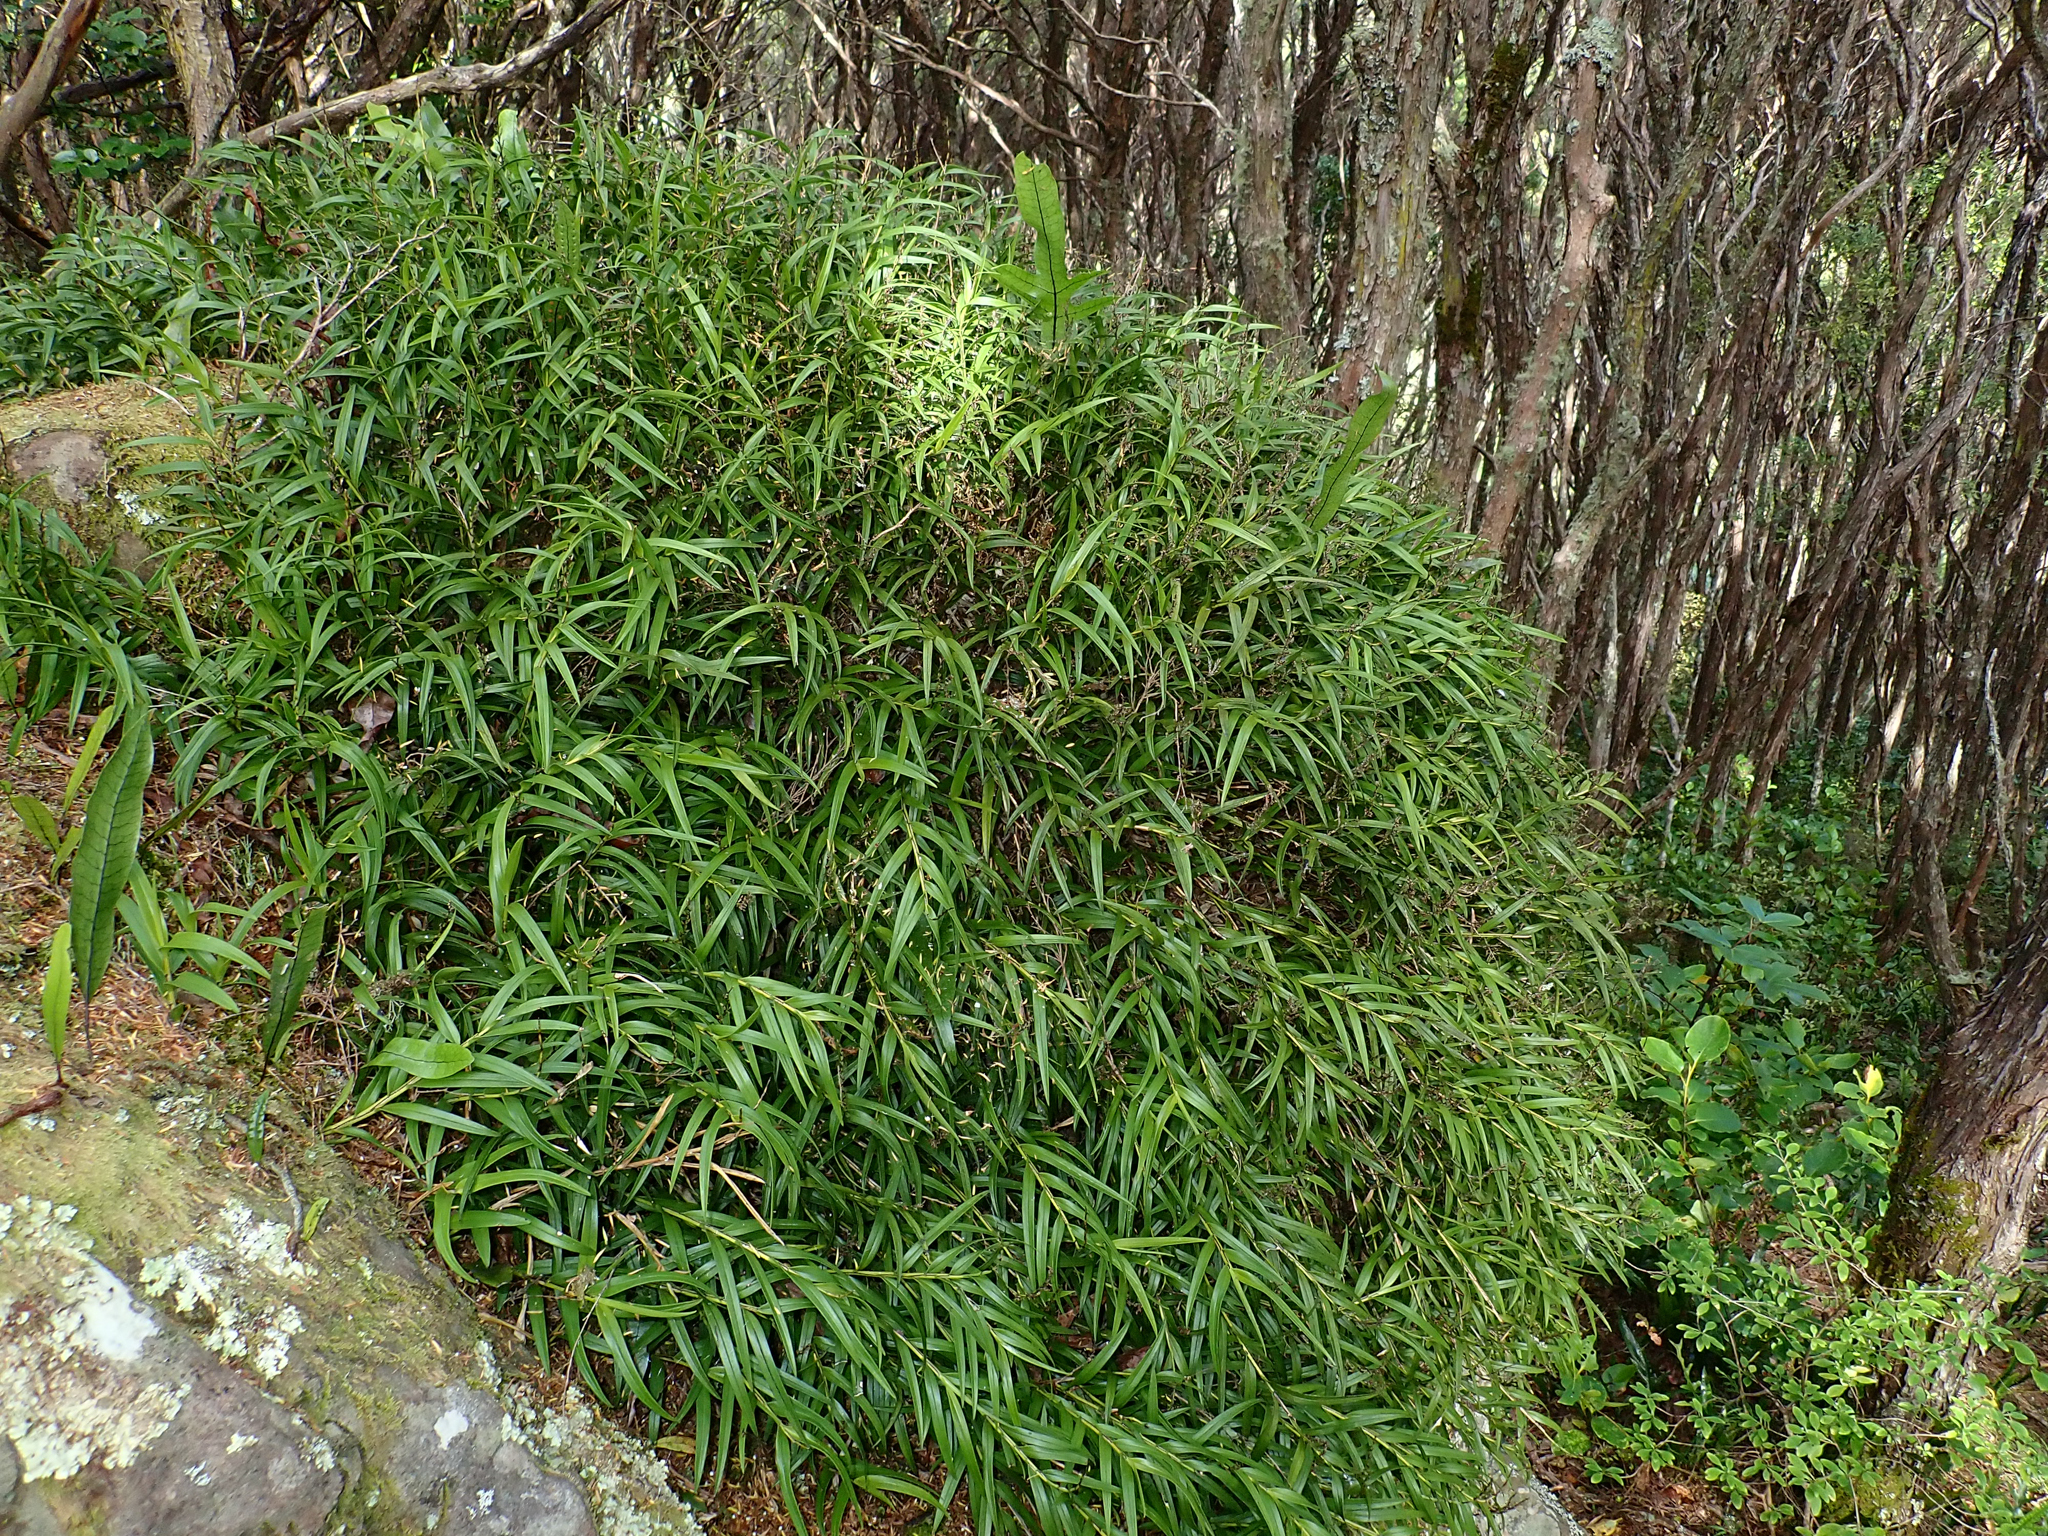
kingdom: Plantae
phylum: Tracheophyta
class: Liliopsida
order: Asparagales
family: Orchidaceae
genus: Earina
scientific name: Earina autumnalis
